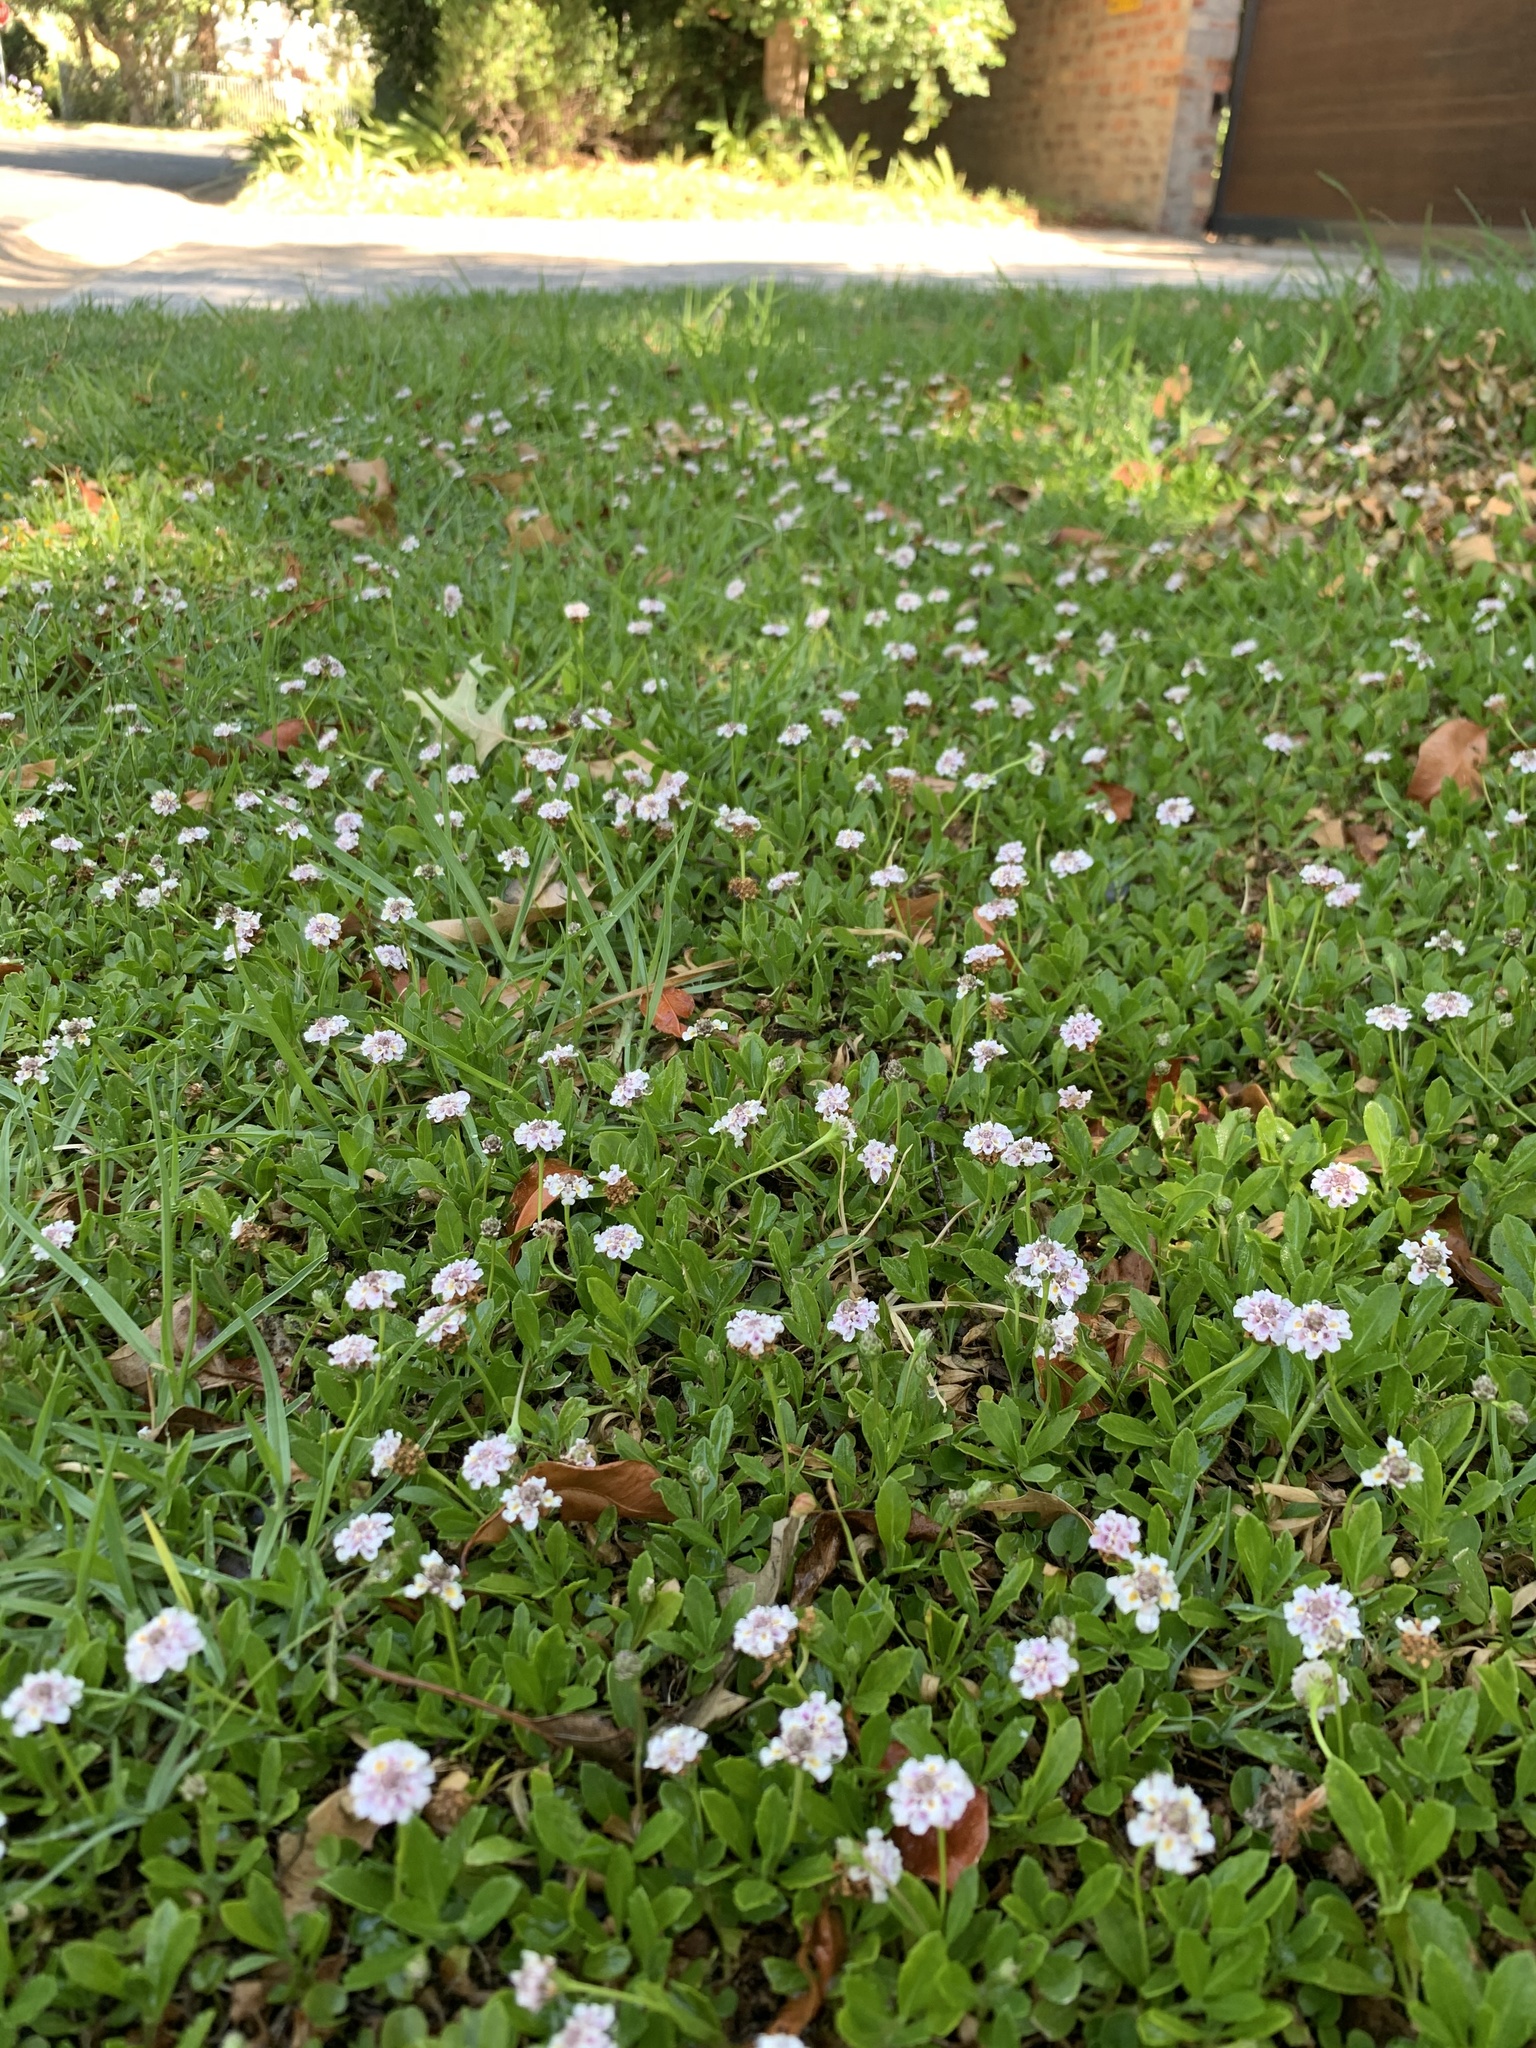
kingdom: Plantae
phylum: Tracheophyta
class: Magnoliopsida
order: Lamiales
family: Verbenaceae
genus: Phyla
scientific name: Phyla nodiflora
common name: Frogfruit
